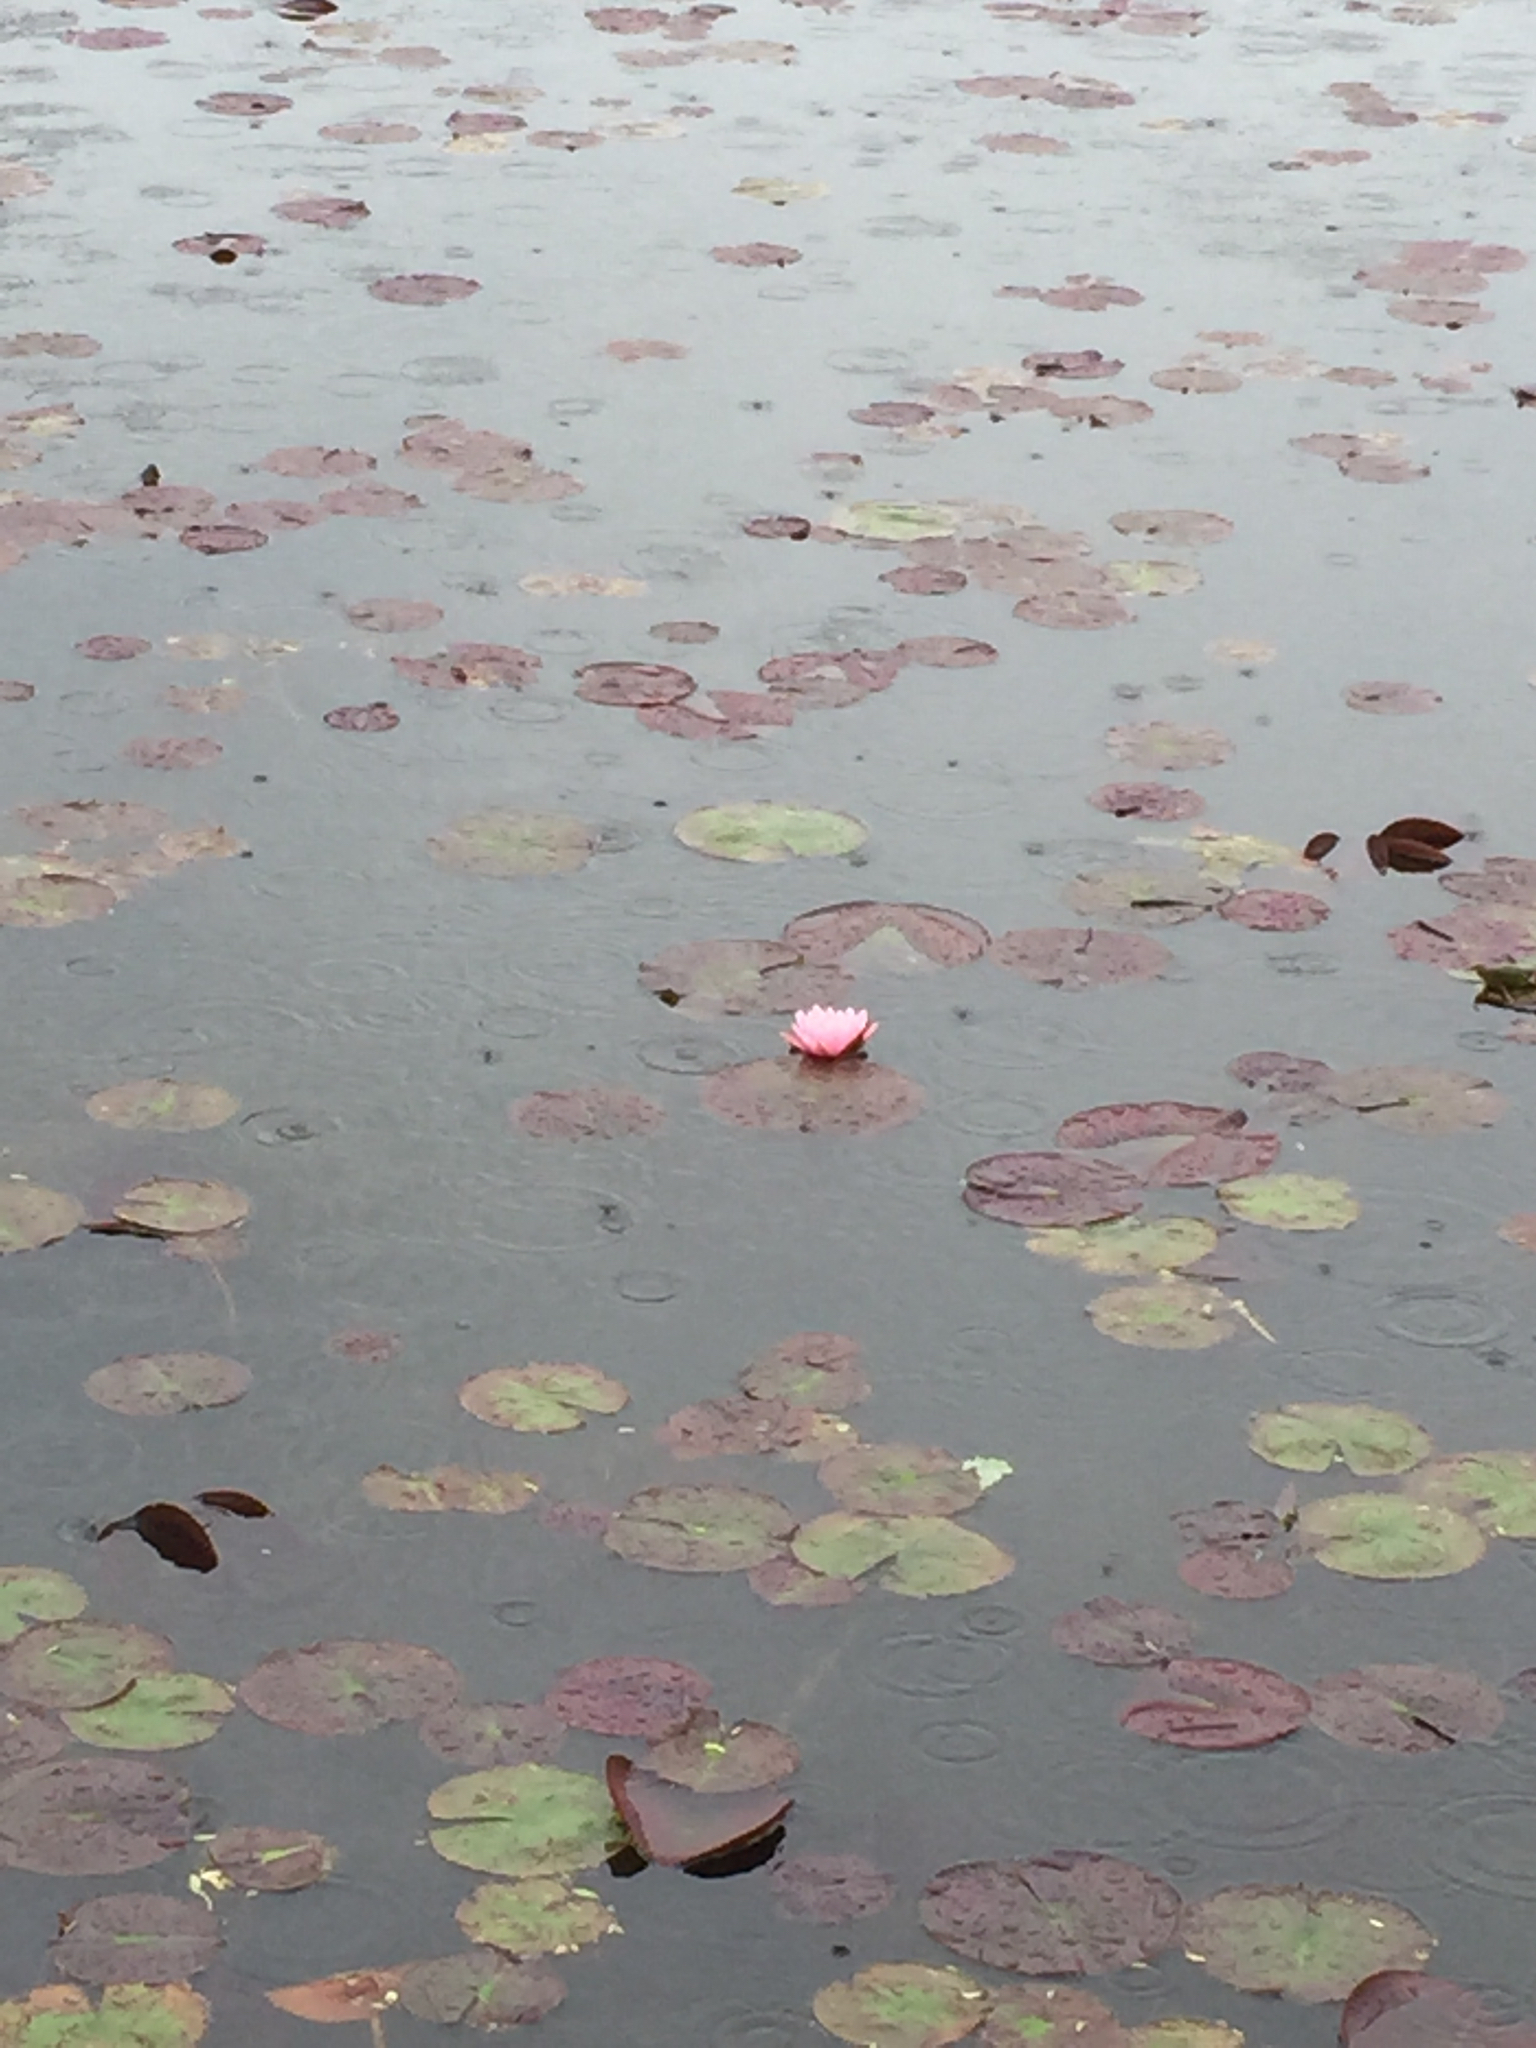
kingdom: Plantae
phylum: Tracheophyta
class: Magnoliopsida
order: Nymphaeales
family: Nymphaeaceae
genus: Nymphaea
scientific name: Nymphaea odorata
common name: Fragrant water-lily
